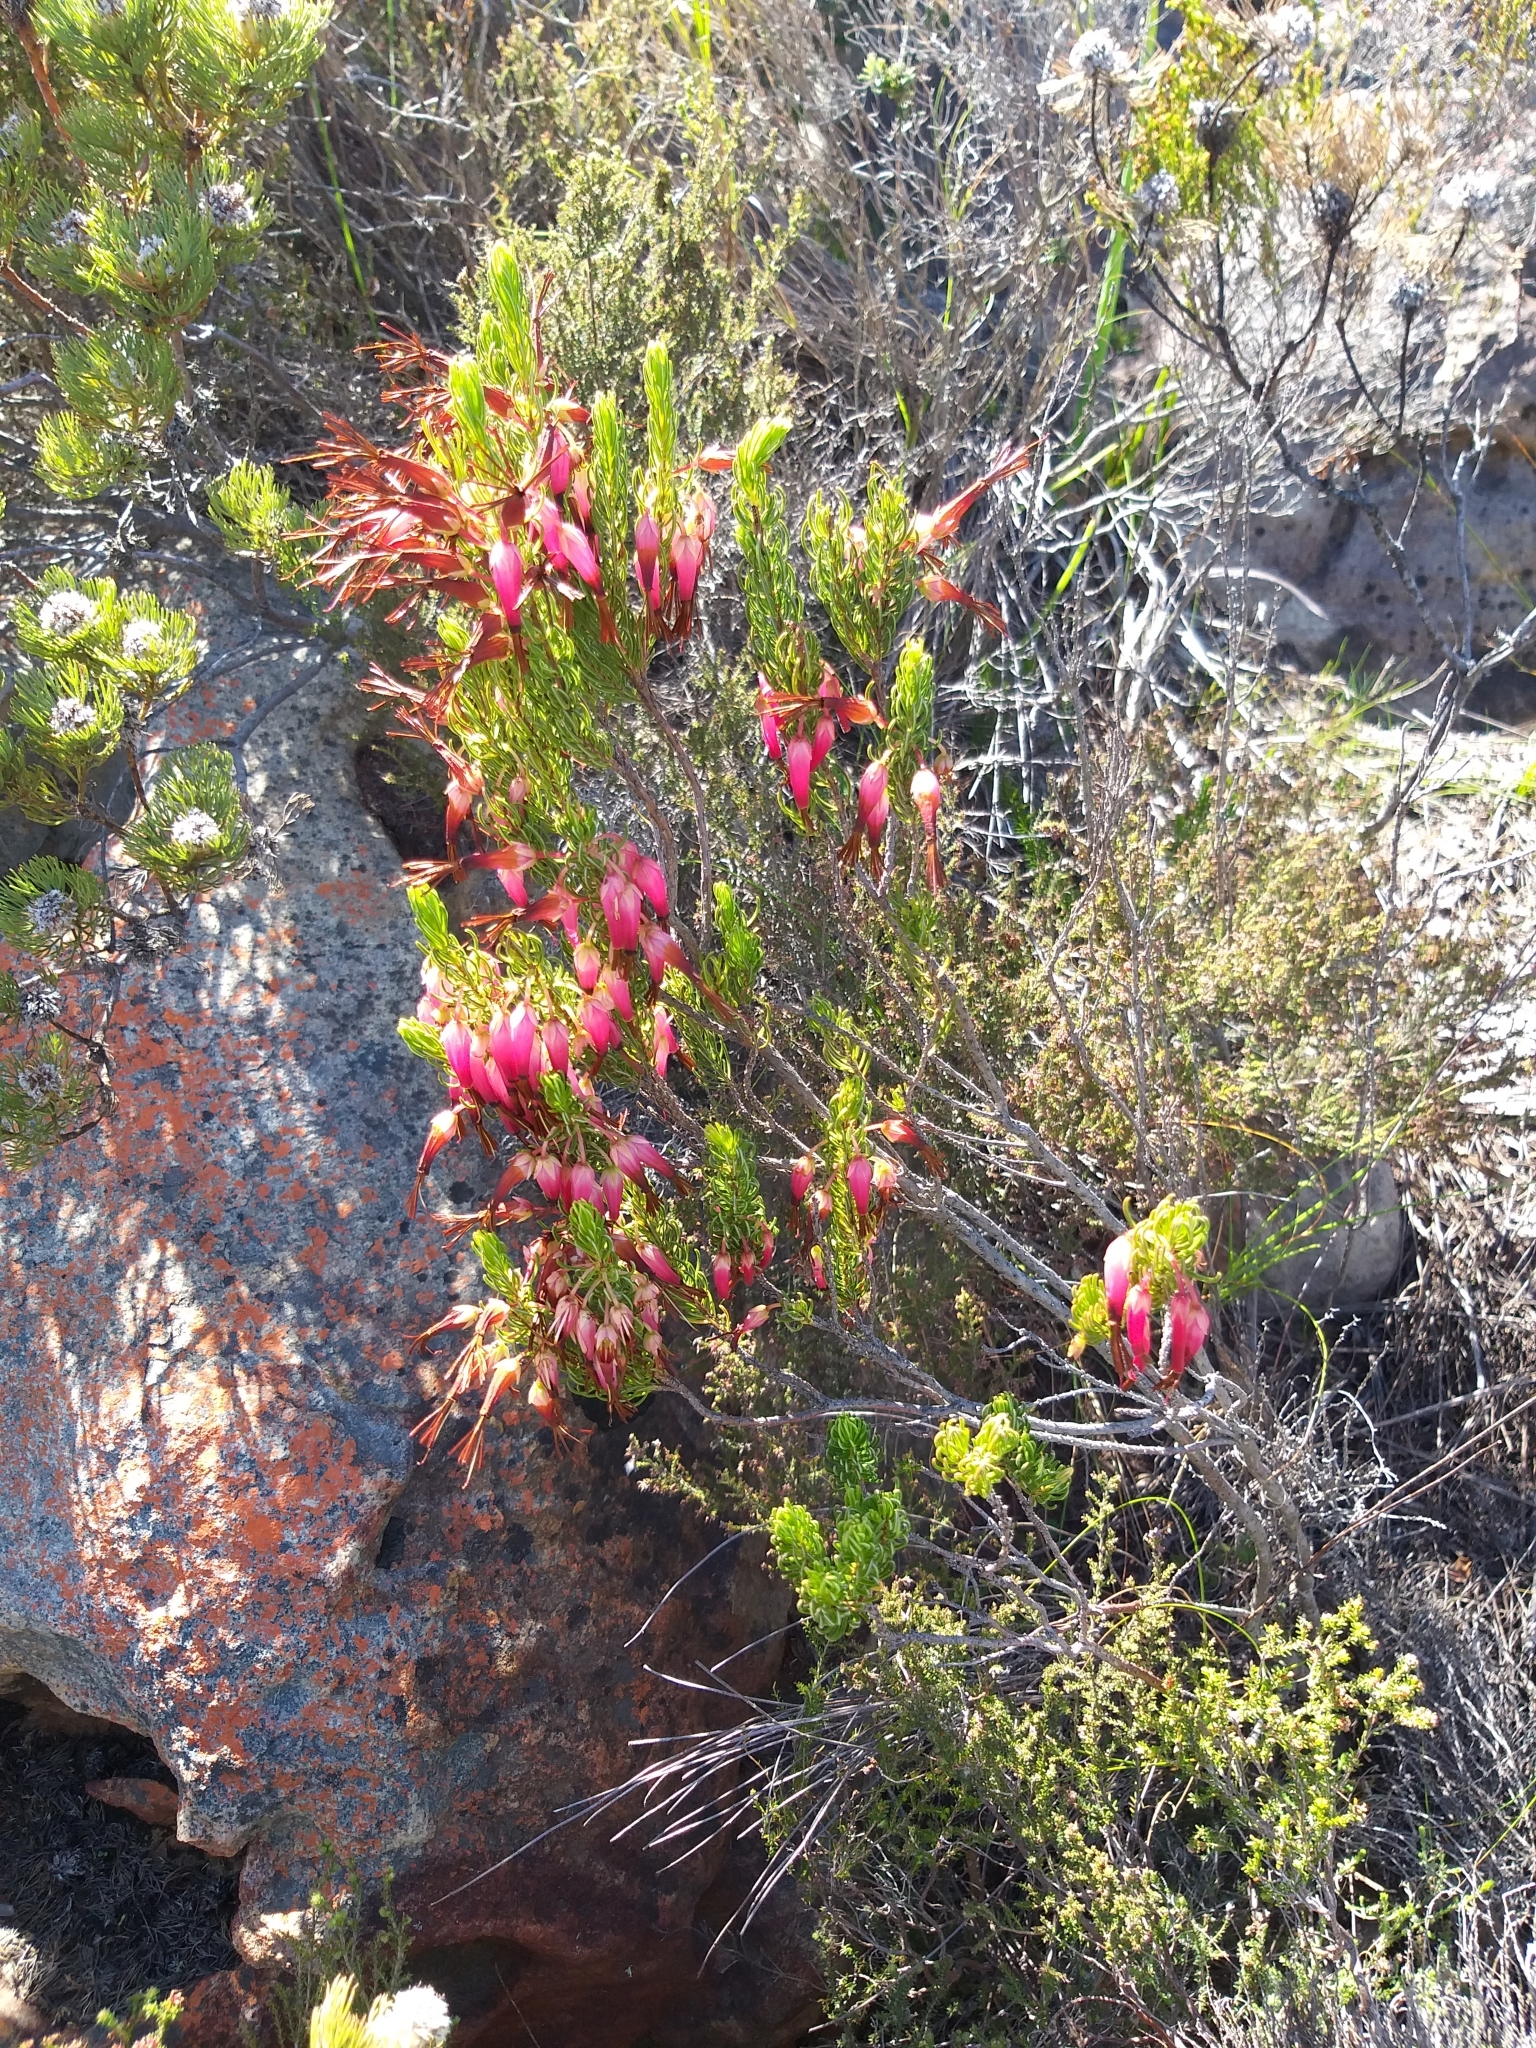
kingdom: Plantae
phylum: Tracheophyta
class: Magnoliopsida
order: Ericales
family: Ericaceae
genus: Erica
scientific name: Erica plukenetii
